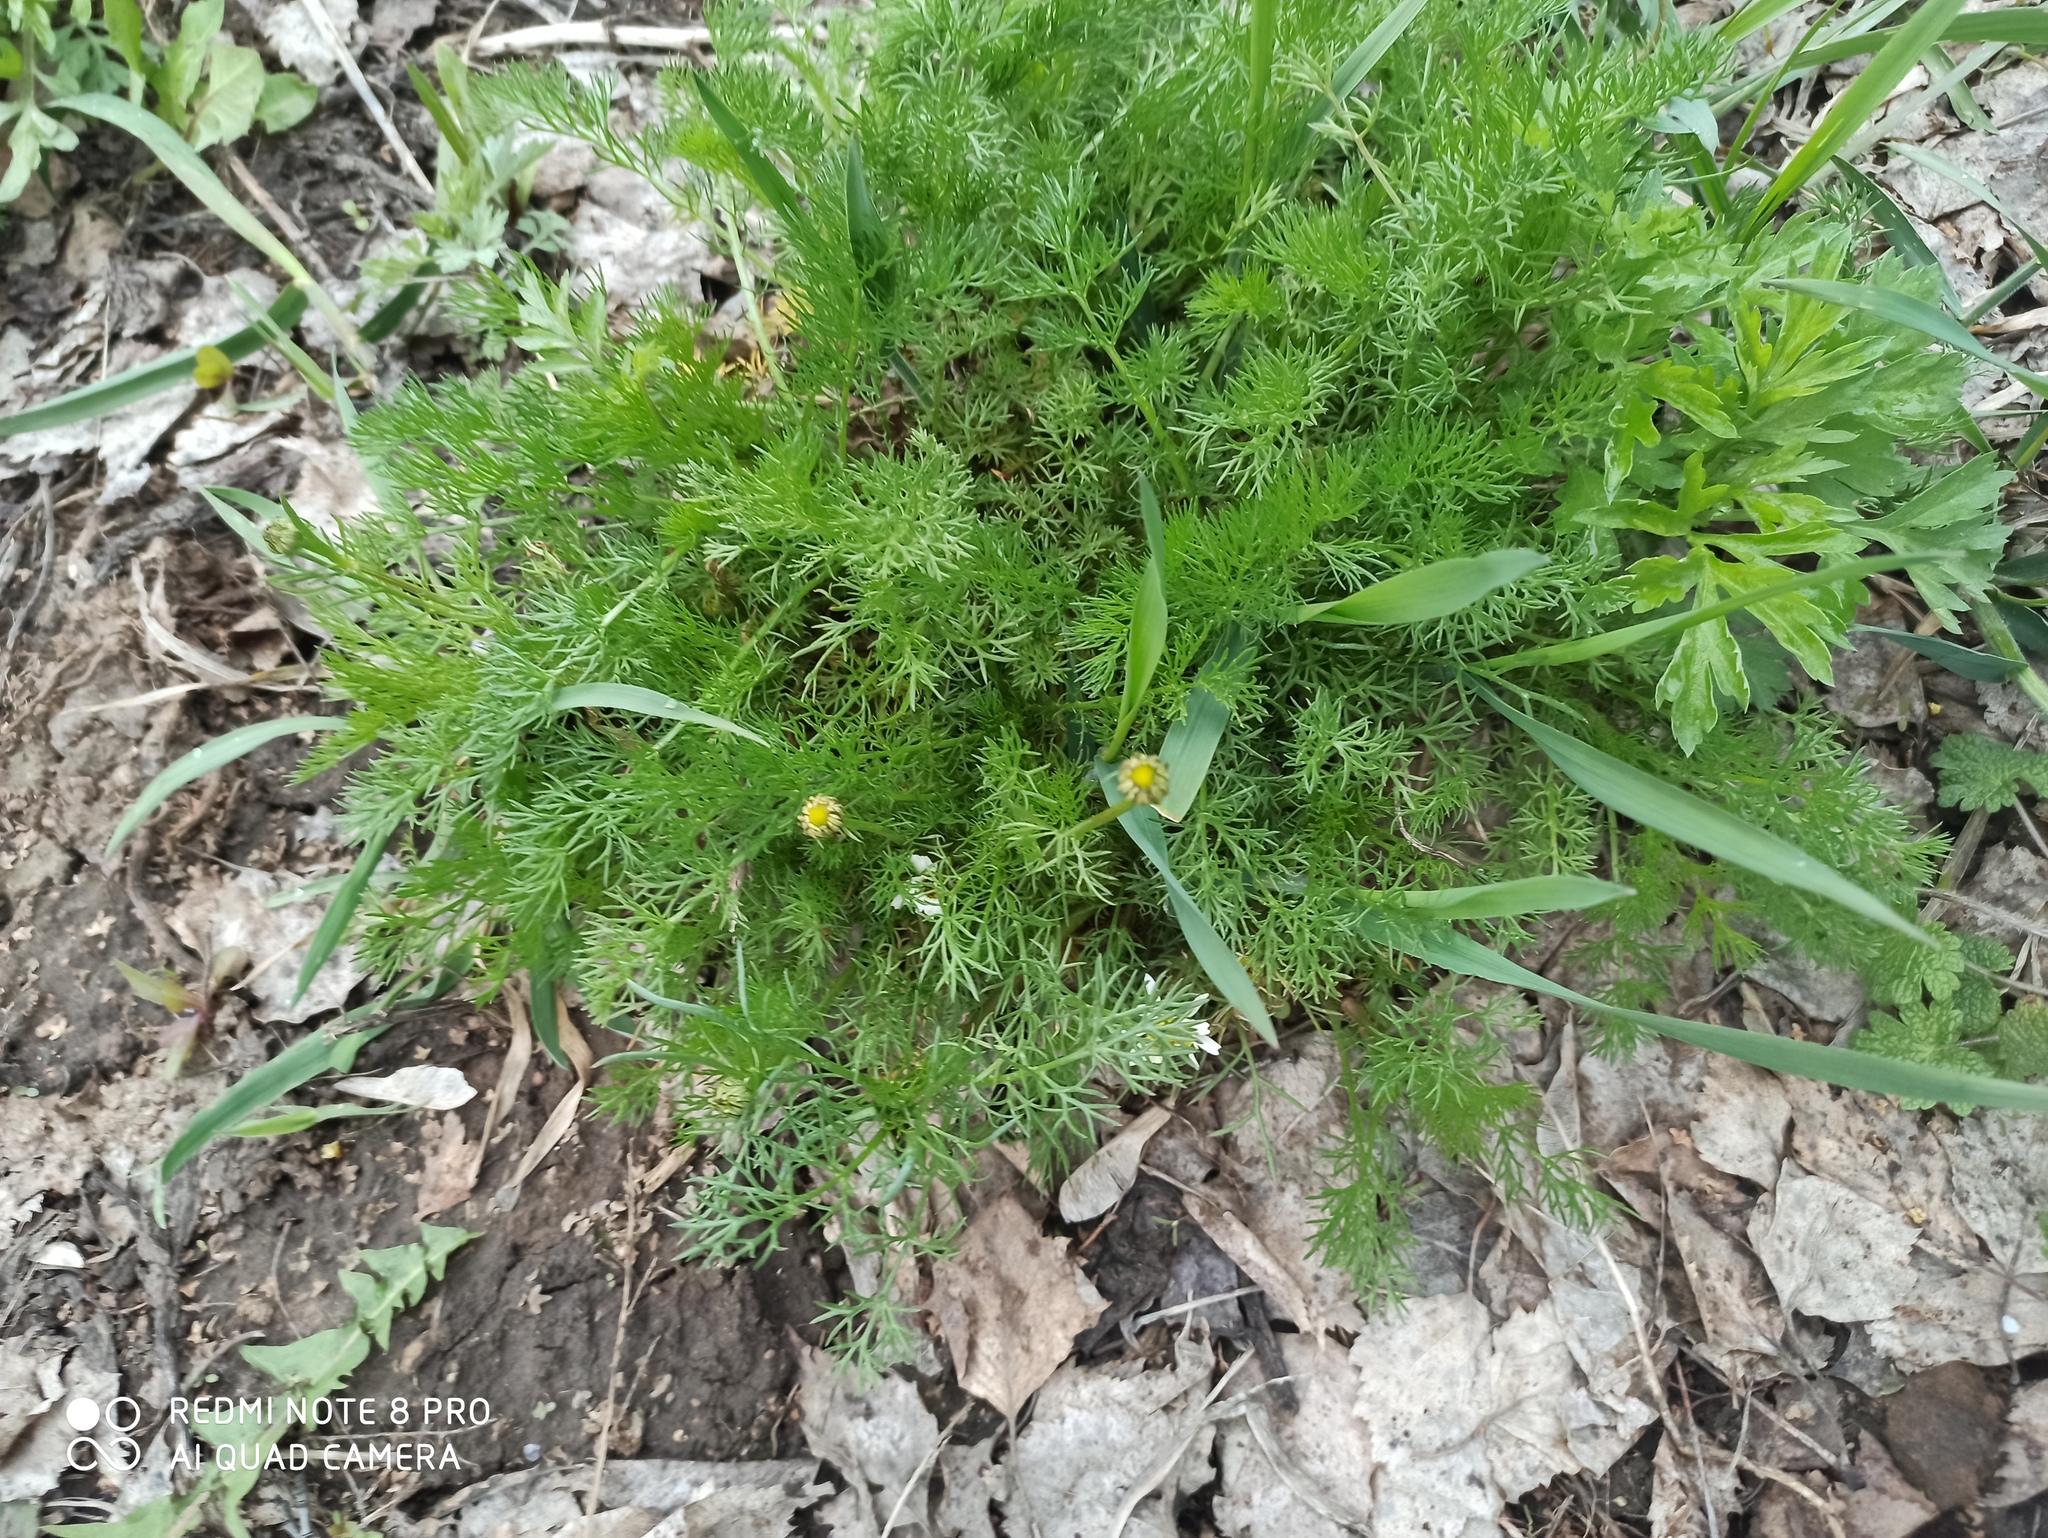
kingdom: Plantae
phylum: Tracheophyta
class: Magnoliopsida
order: Asterales
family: Asteraceae
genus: Tripleurospermum
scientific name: Tripleurospermum inodorum
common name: Scentless mayweed
